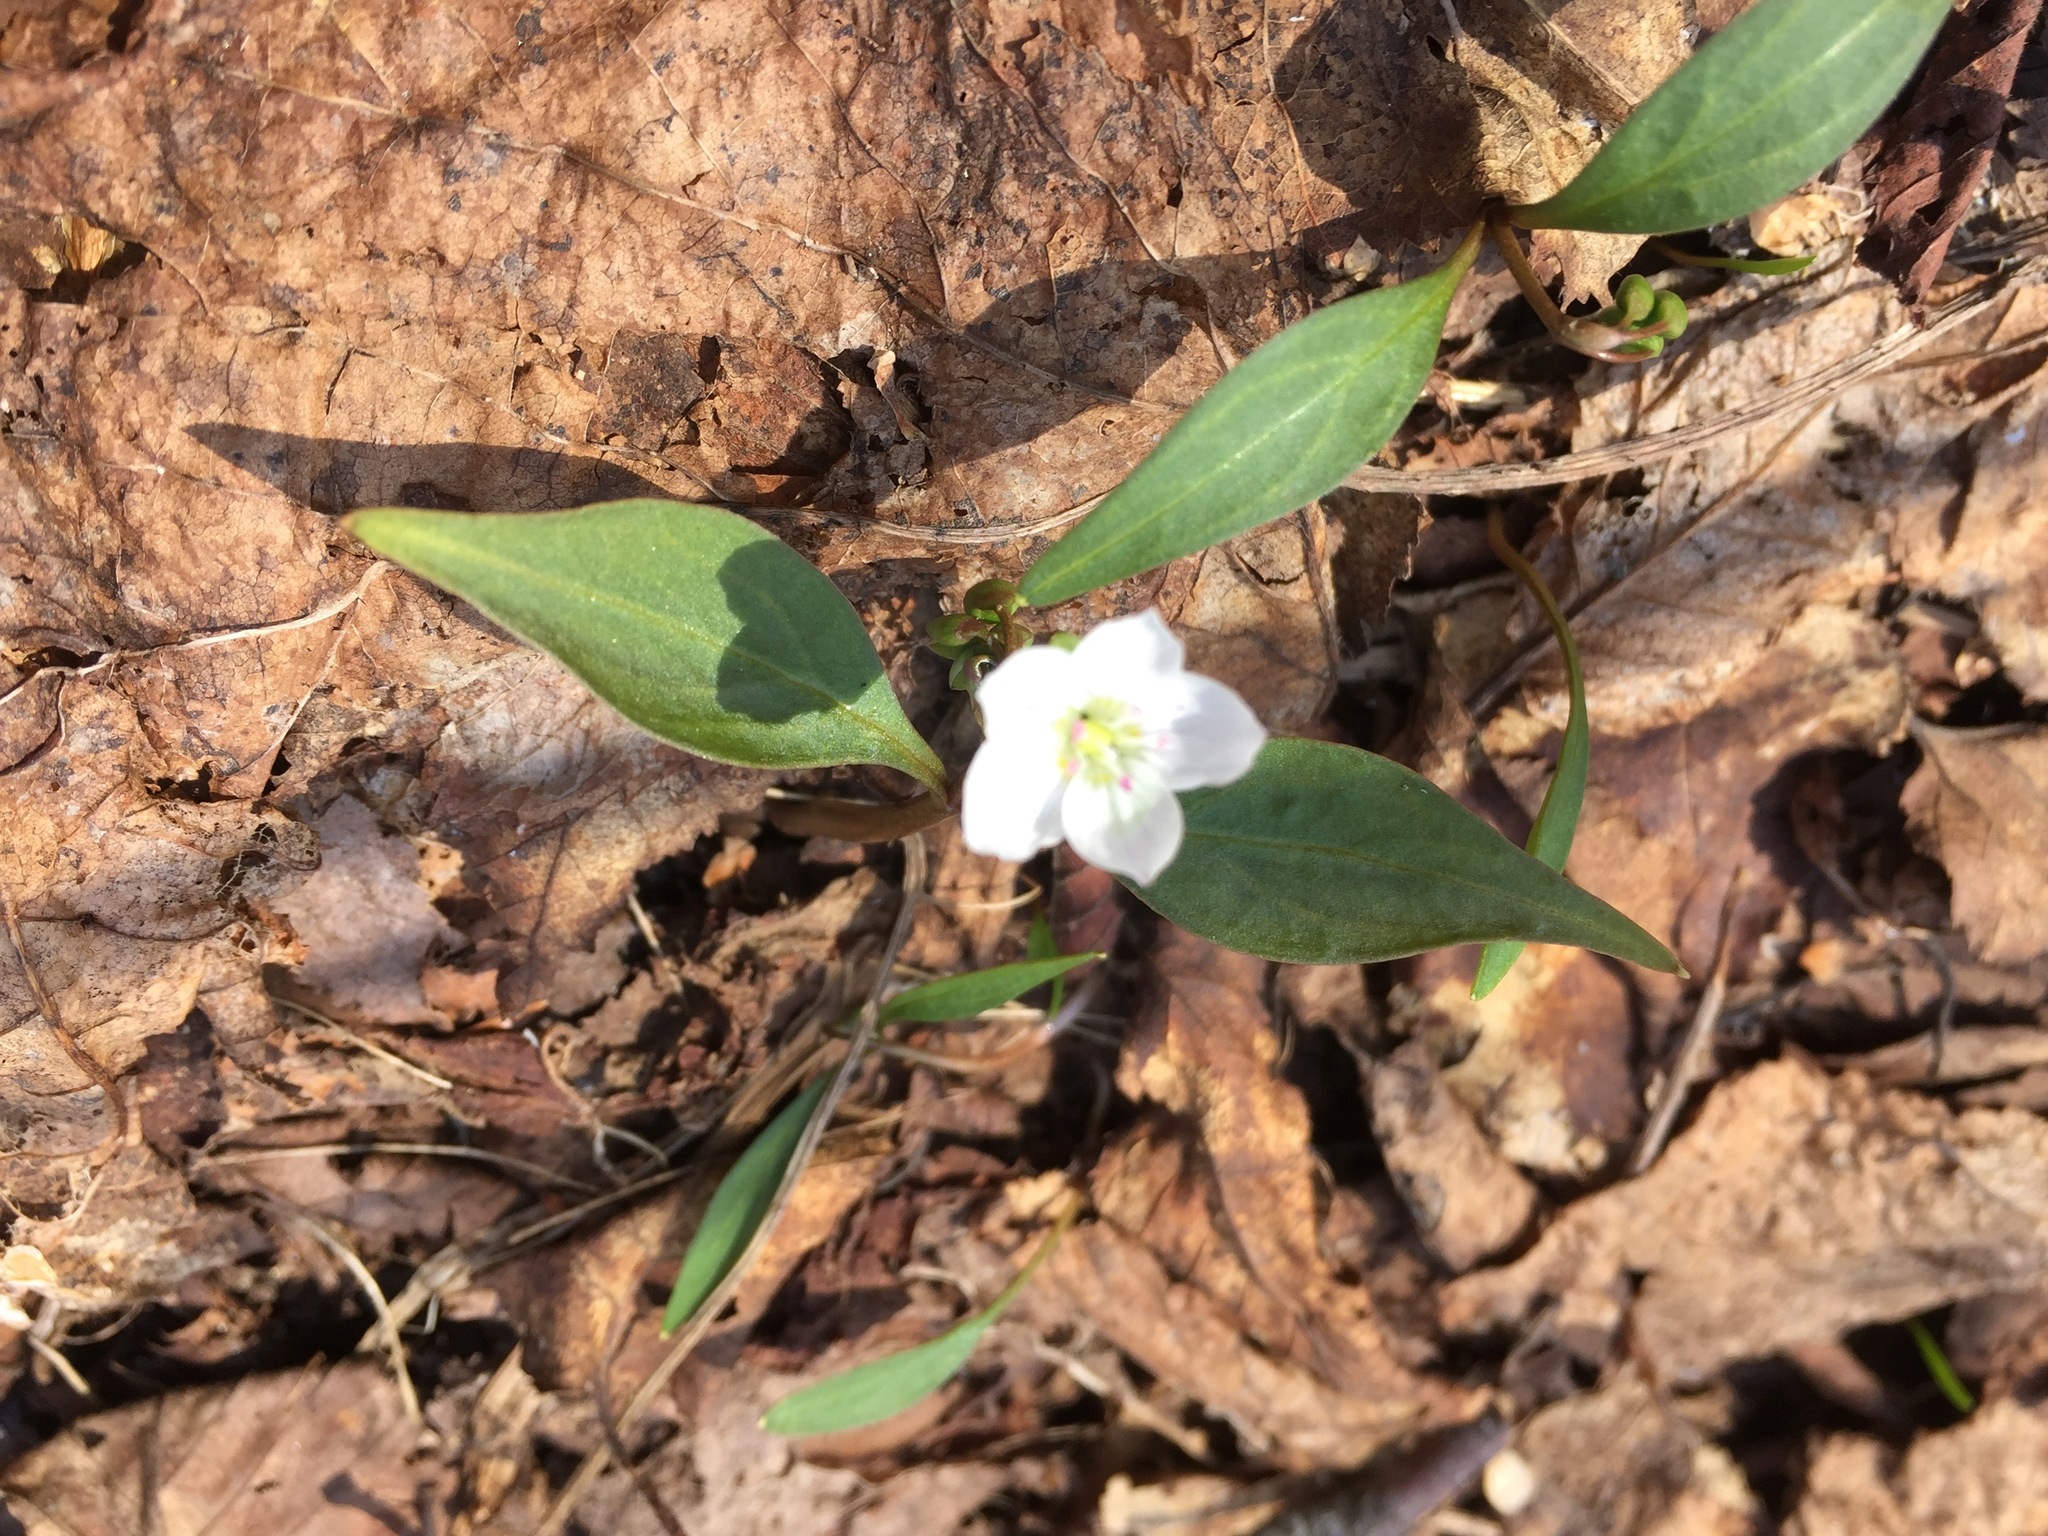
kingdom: Plantae
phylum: Tracheophyta
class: Magnoliopsida
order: Caryophyllales
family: Montiaceae
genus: Claytonia
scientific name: Claytonia caroliniana
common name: Carolina spring beauty
